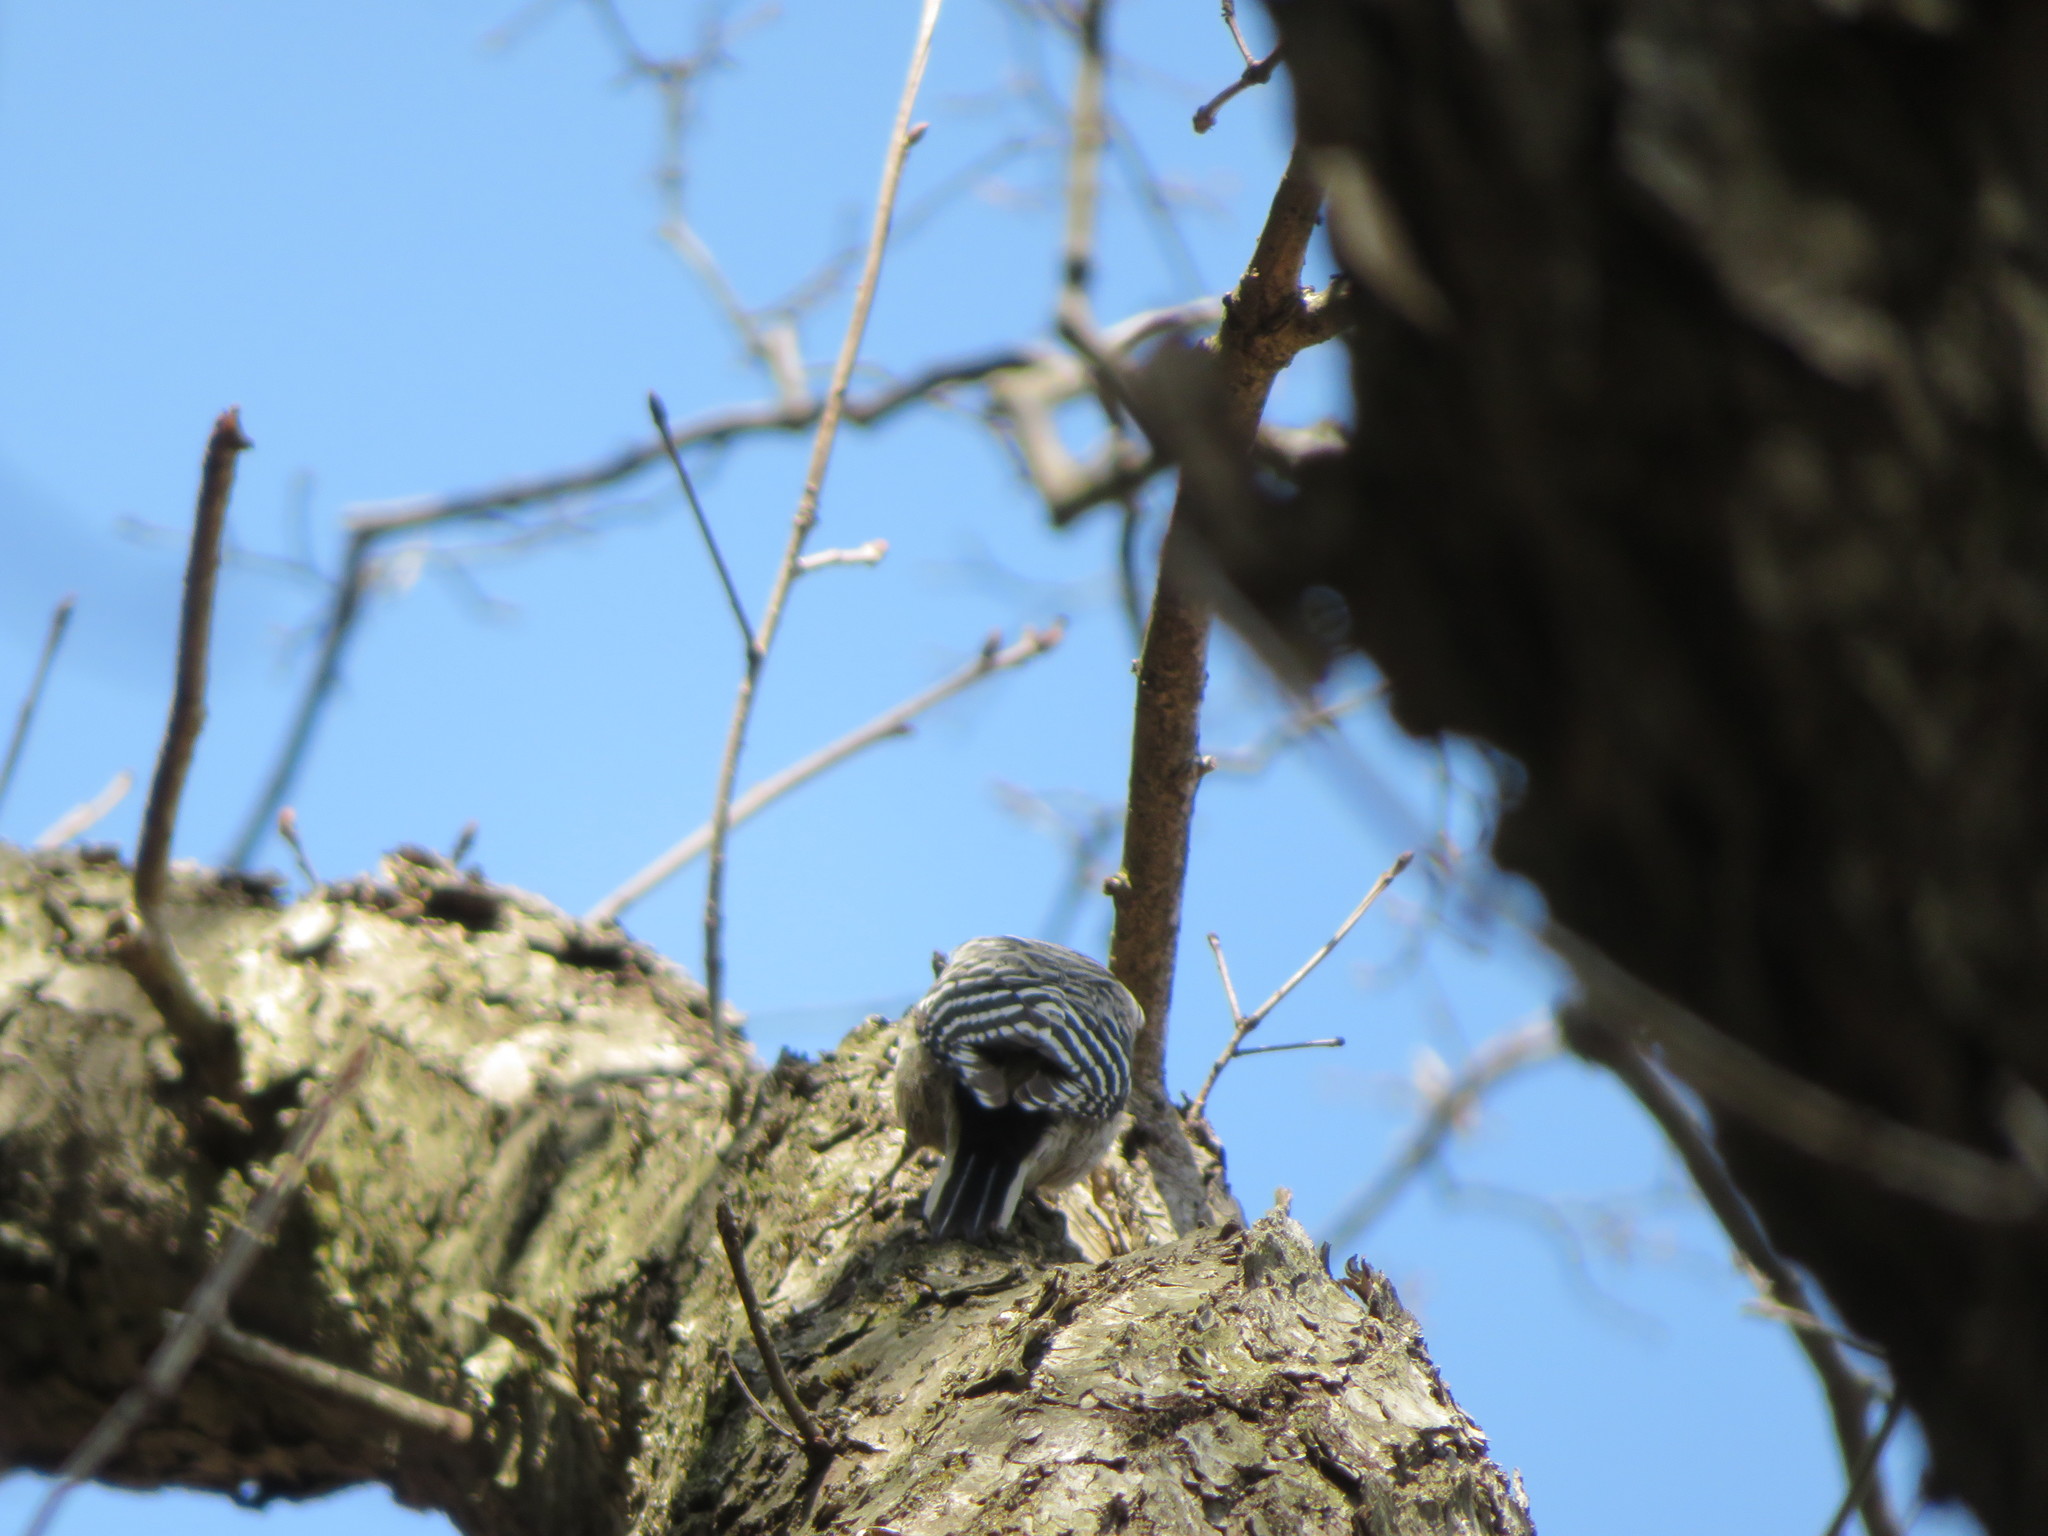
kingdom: Animalia
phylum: Chordata
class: Aves
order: Piciformes
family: Picidae
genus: Yungipicus
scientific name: Yungipicus kizuki
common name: Japanese pygmy woodpecker
